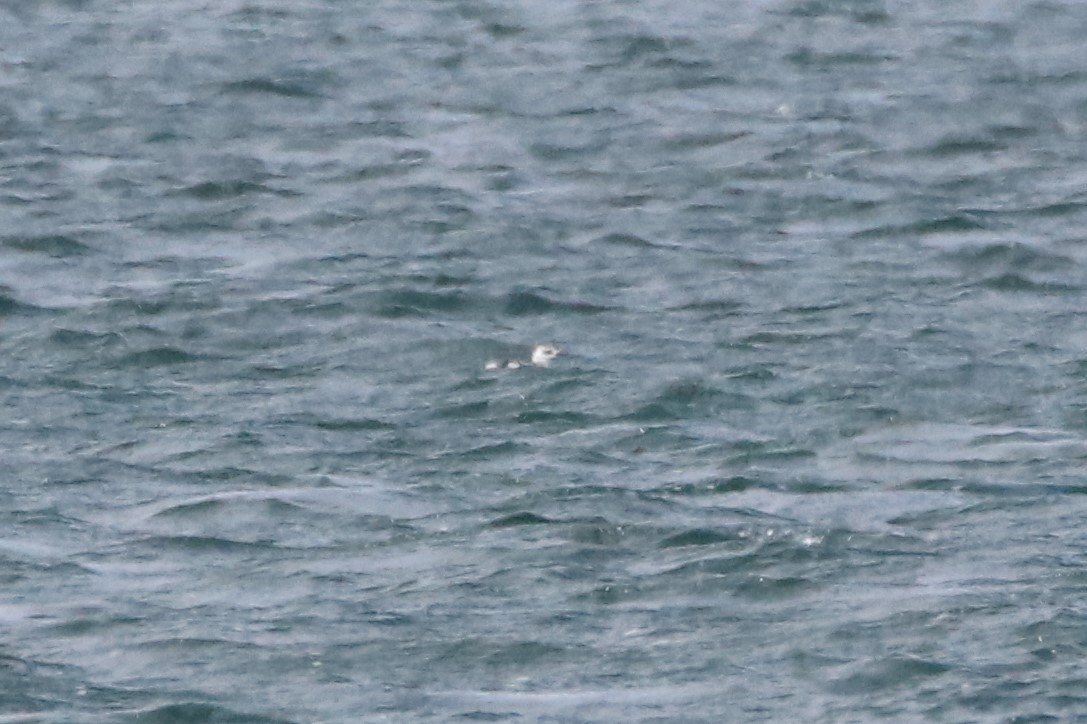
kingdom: Animalia
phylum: Chordata
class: Aves
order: Charadriiformes
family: Alcidae
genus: Cepphus
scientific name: Cepphus grylle
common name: Black guillemot
